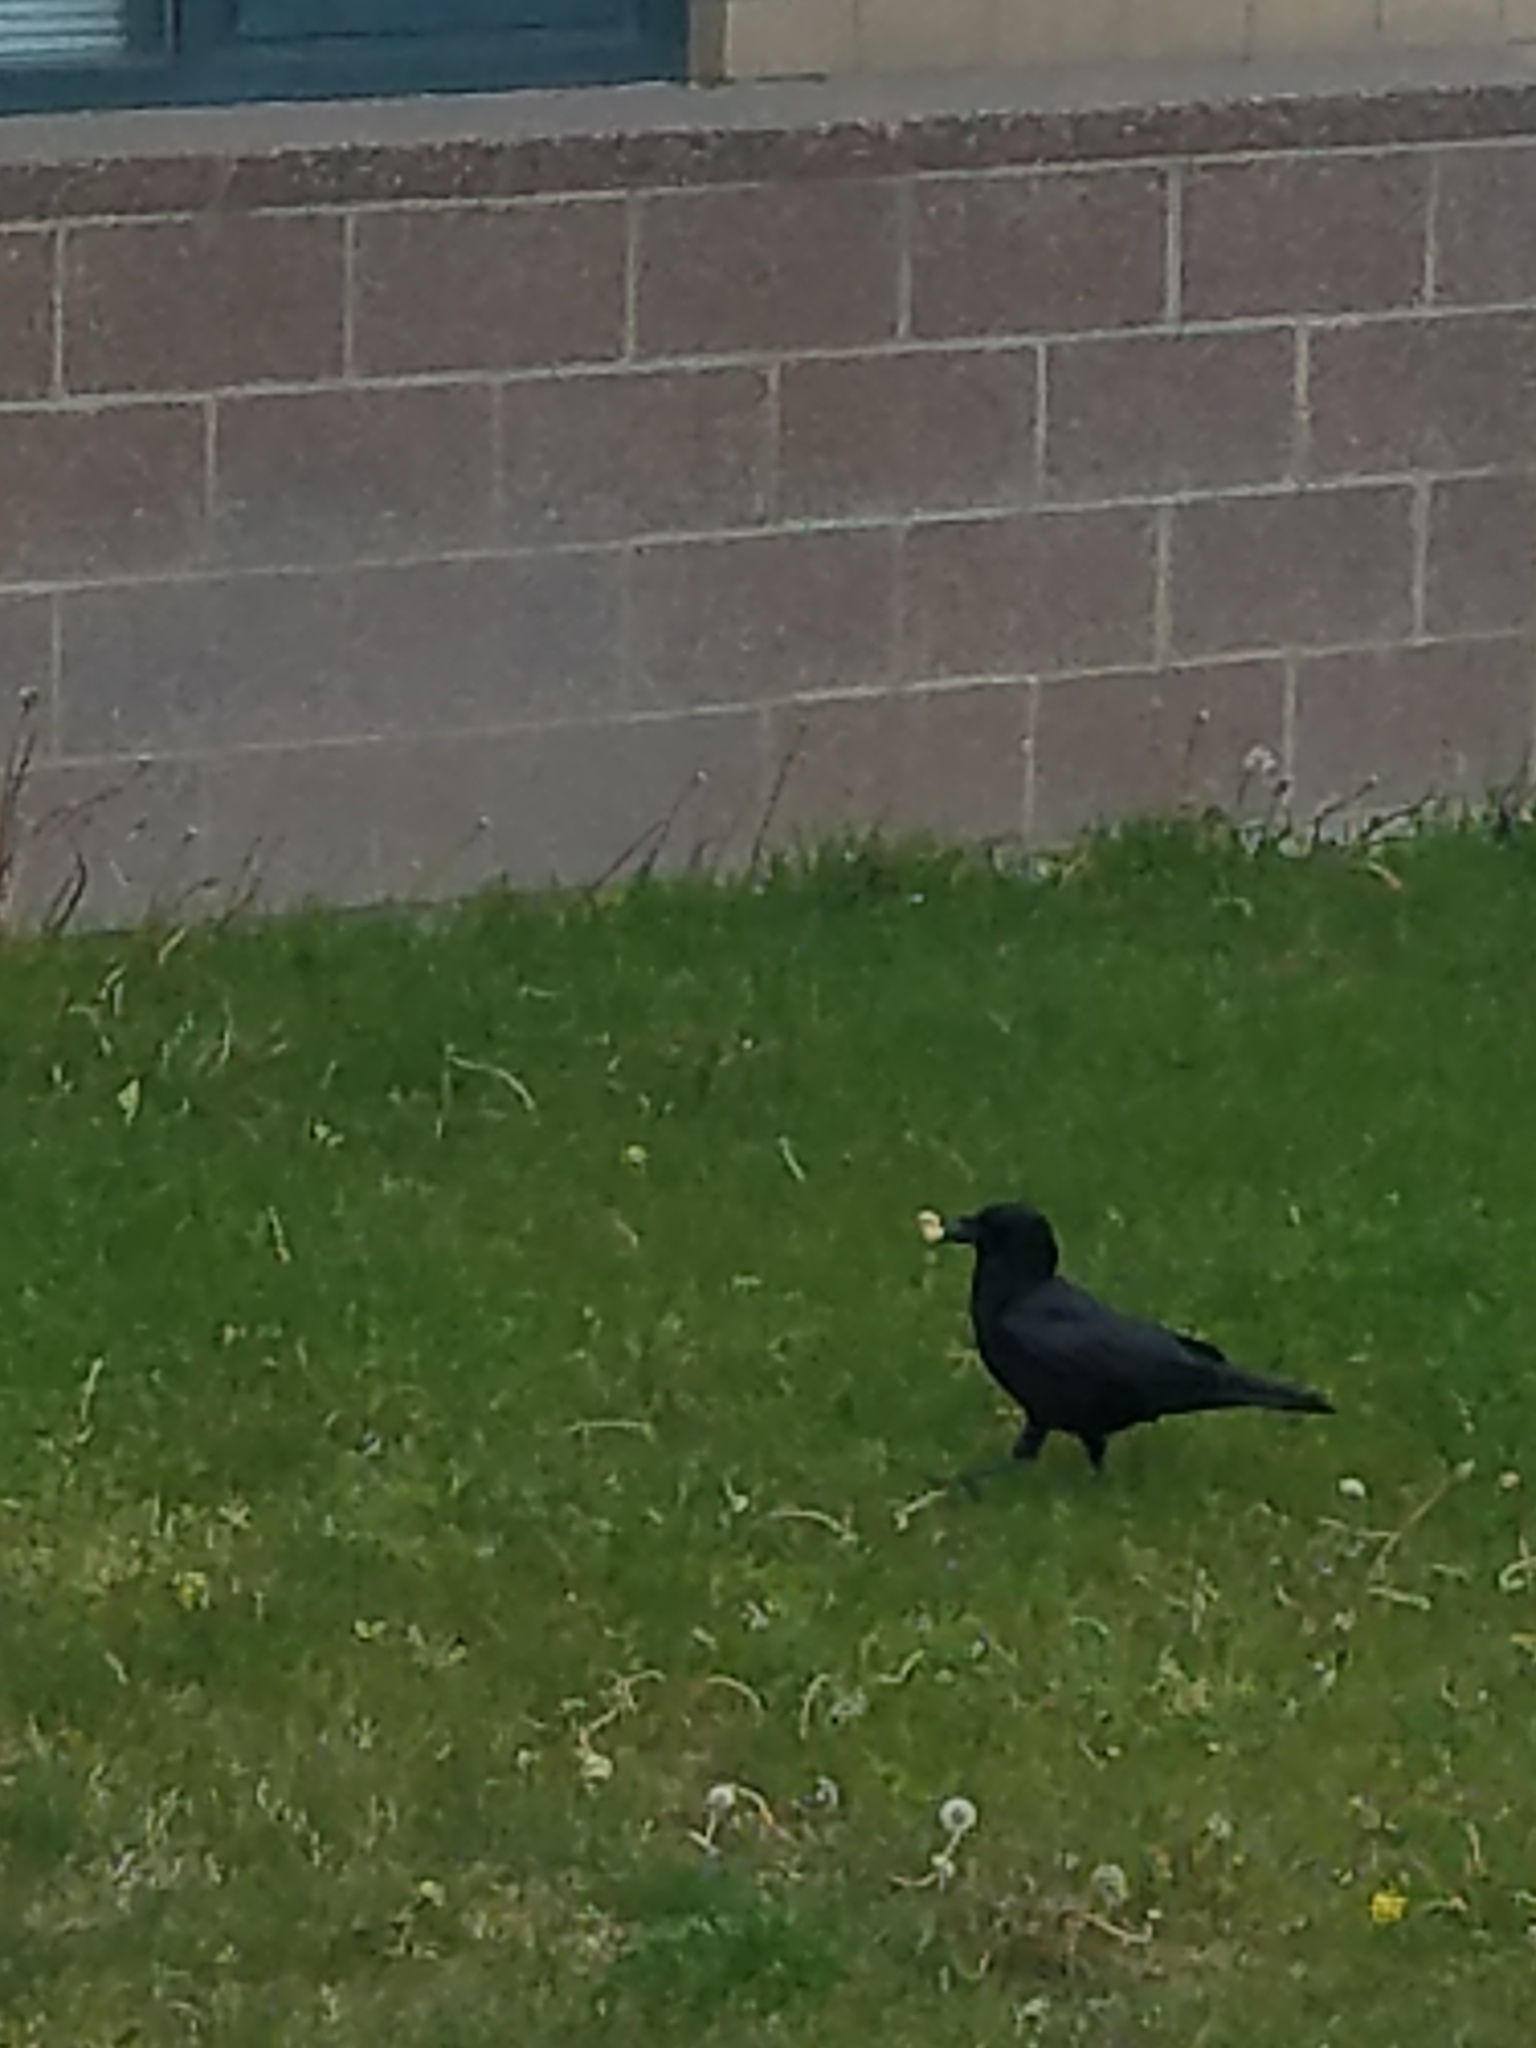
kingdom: Animalia
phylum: Chordata
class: Aves
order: Passeriformes
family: Corvidae
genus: Corvus
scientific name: Corvus brachyrhynchos
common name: American crow
